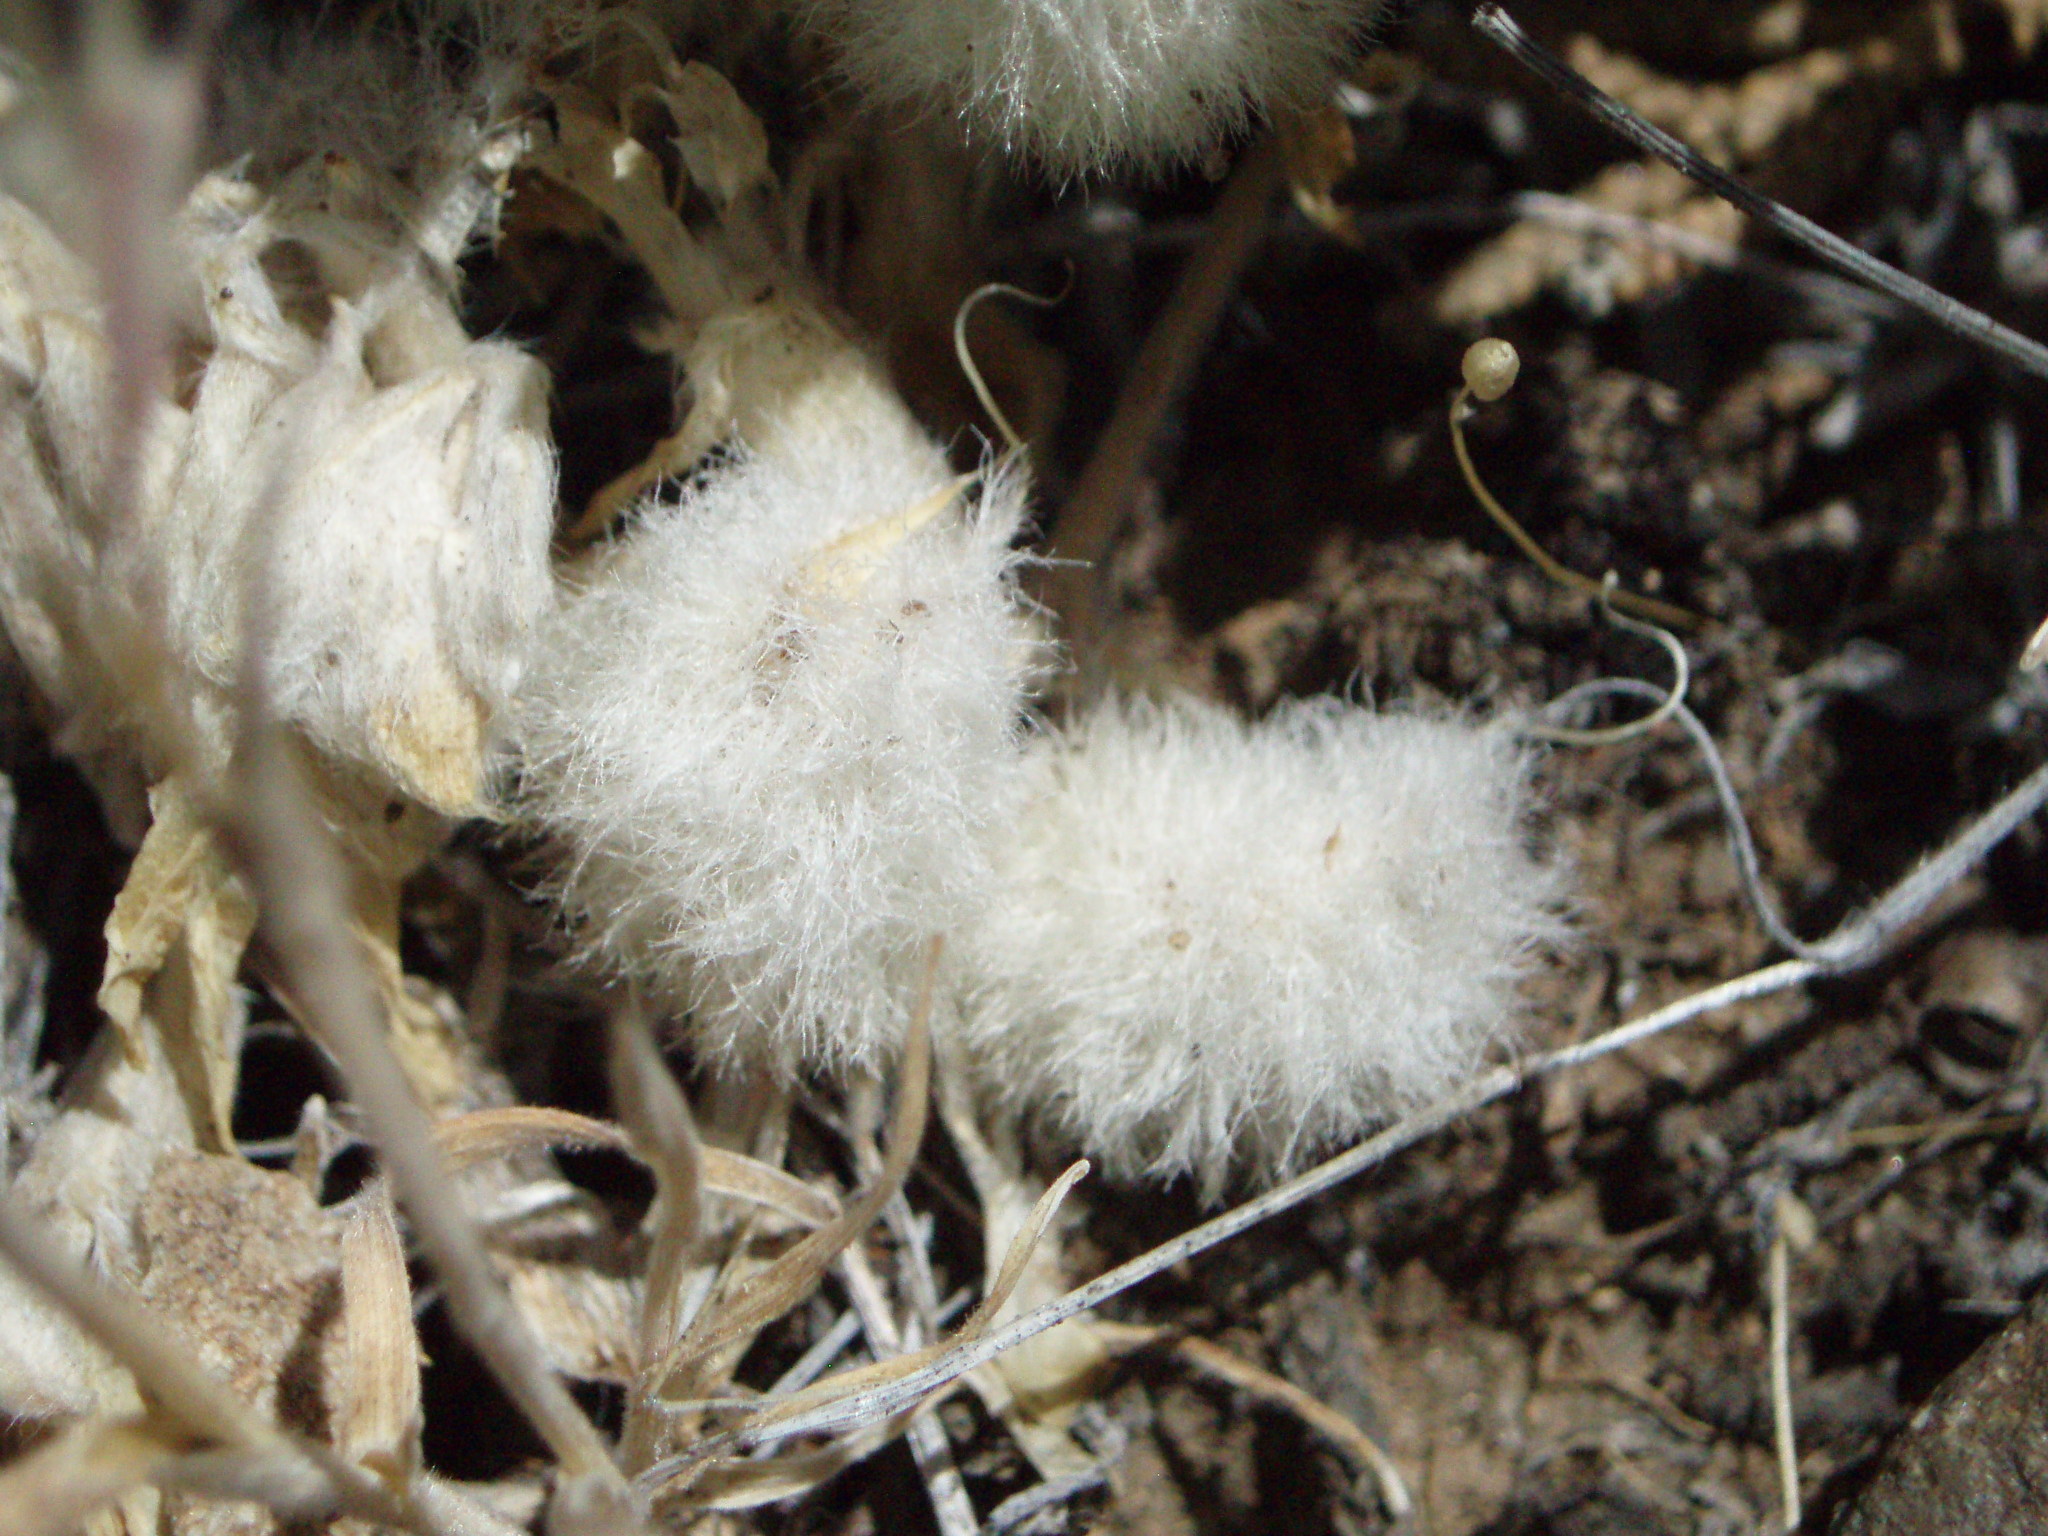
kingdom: Plantae
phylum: Tracheophyta
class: Magnoliopsida
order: Fabales
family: Fabaceae
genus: Astragalus
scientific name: Astragalus purshii
